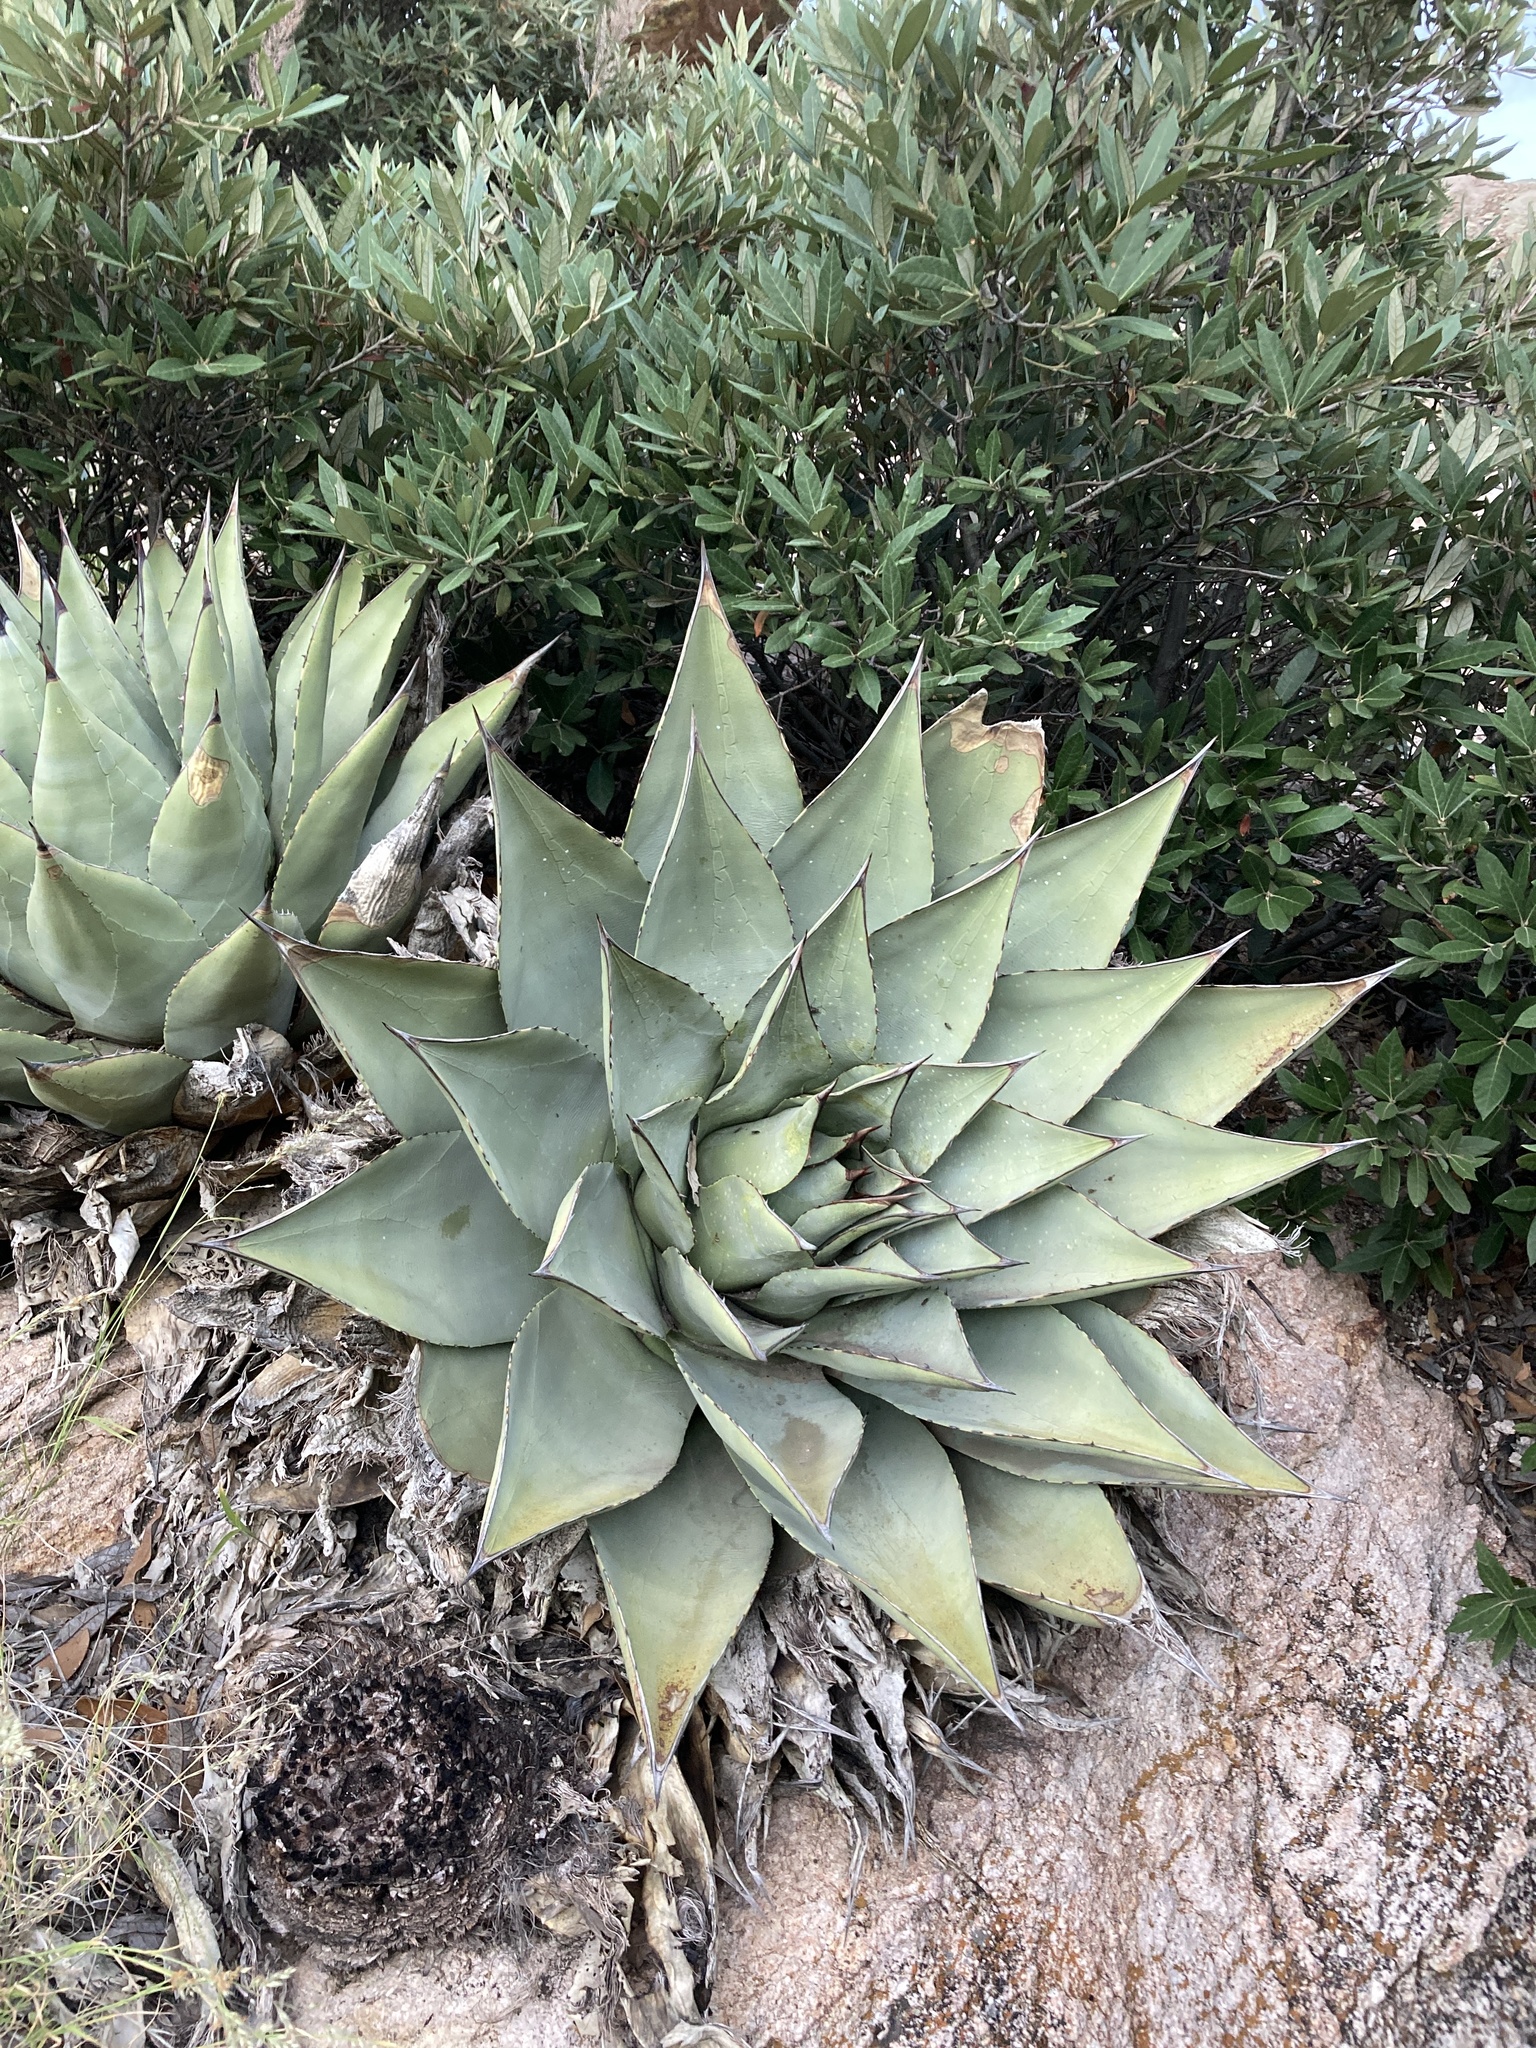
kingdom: Plantae
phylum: Tracheophyta
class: Liliopsida
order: Asparagales
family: Asparagaceae
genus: Agave
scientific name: Agave parryi
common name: Parry's agave
